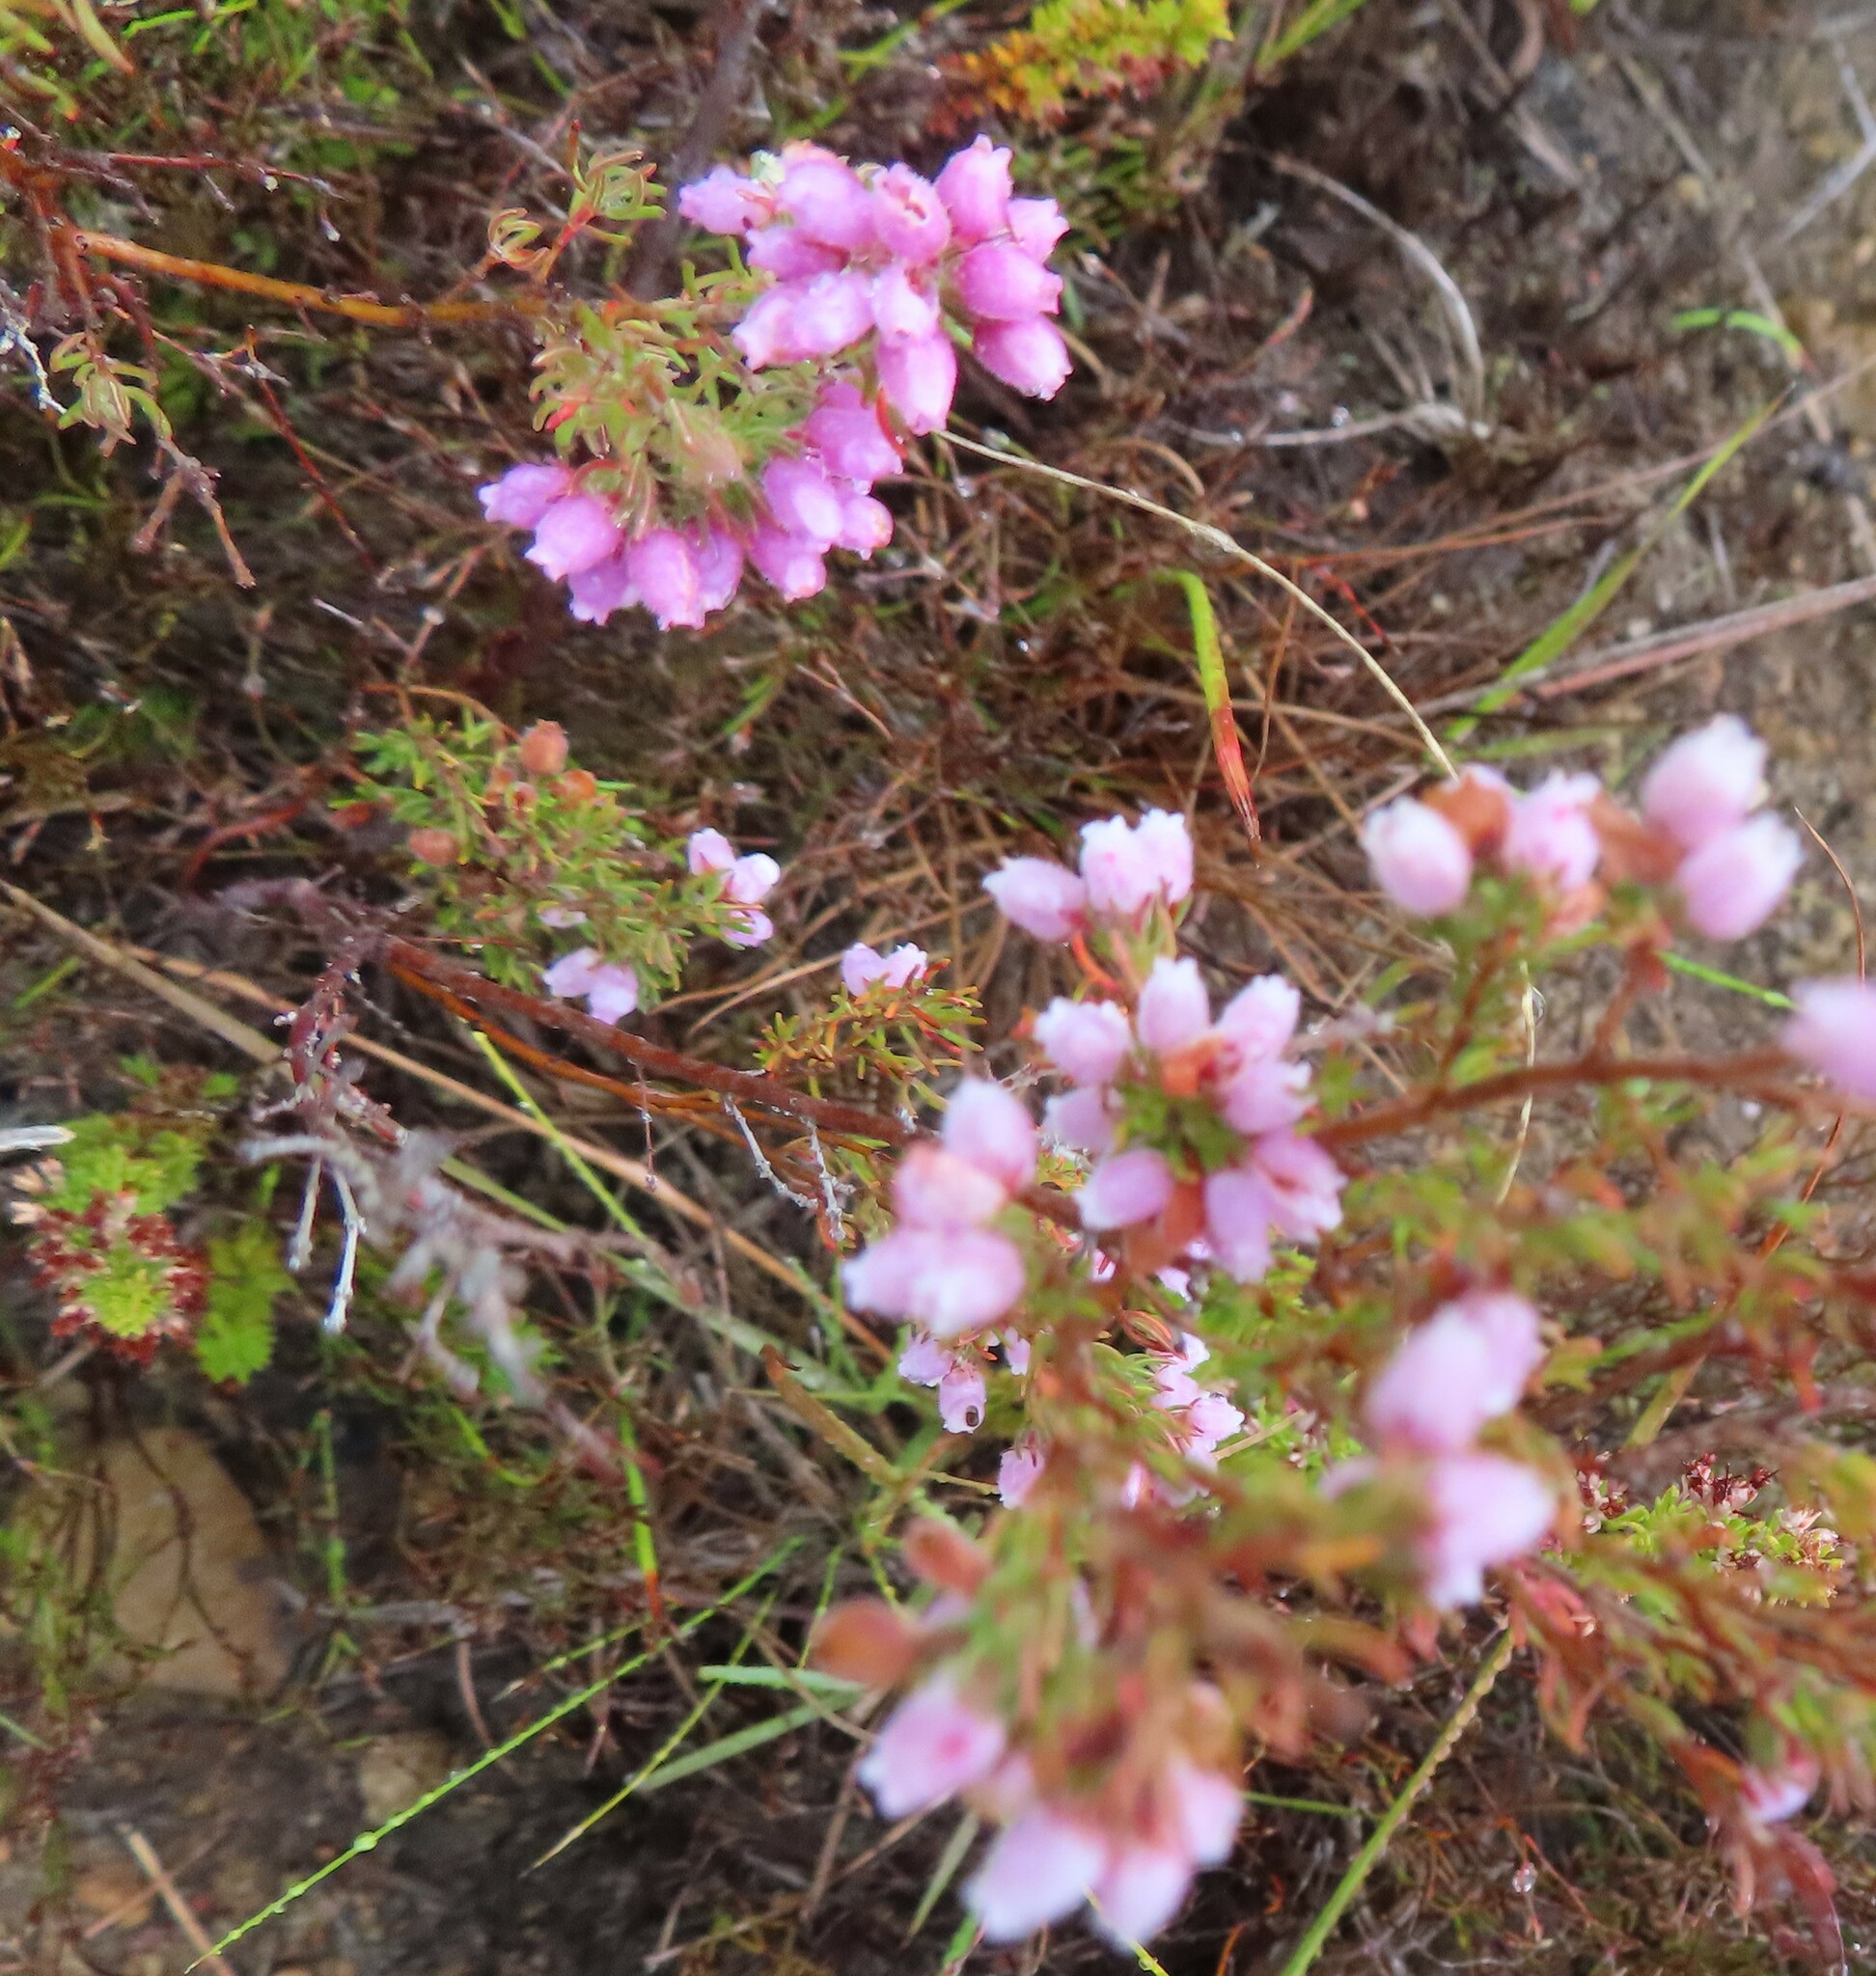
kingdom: Plantae
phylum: Tracheophyta
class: Magnoliopsida
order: Ericales
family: Ericaceae
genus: Erica
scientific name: Erica hirtiflora
